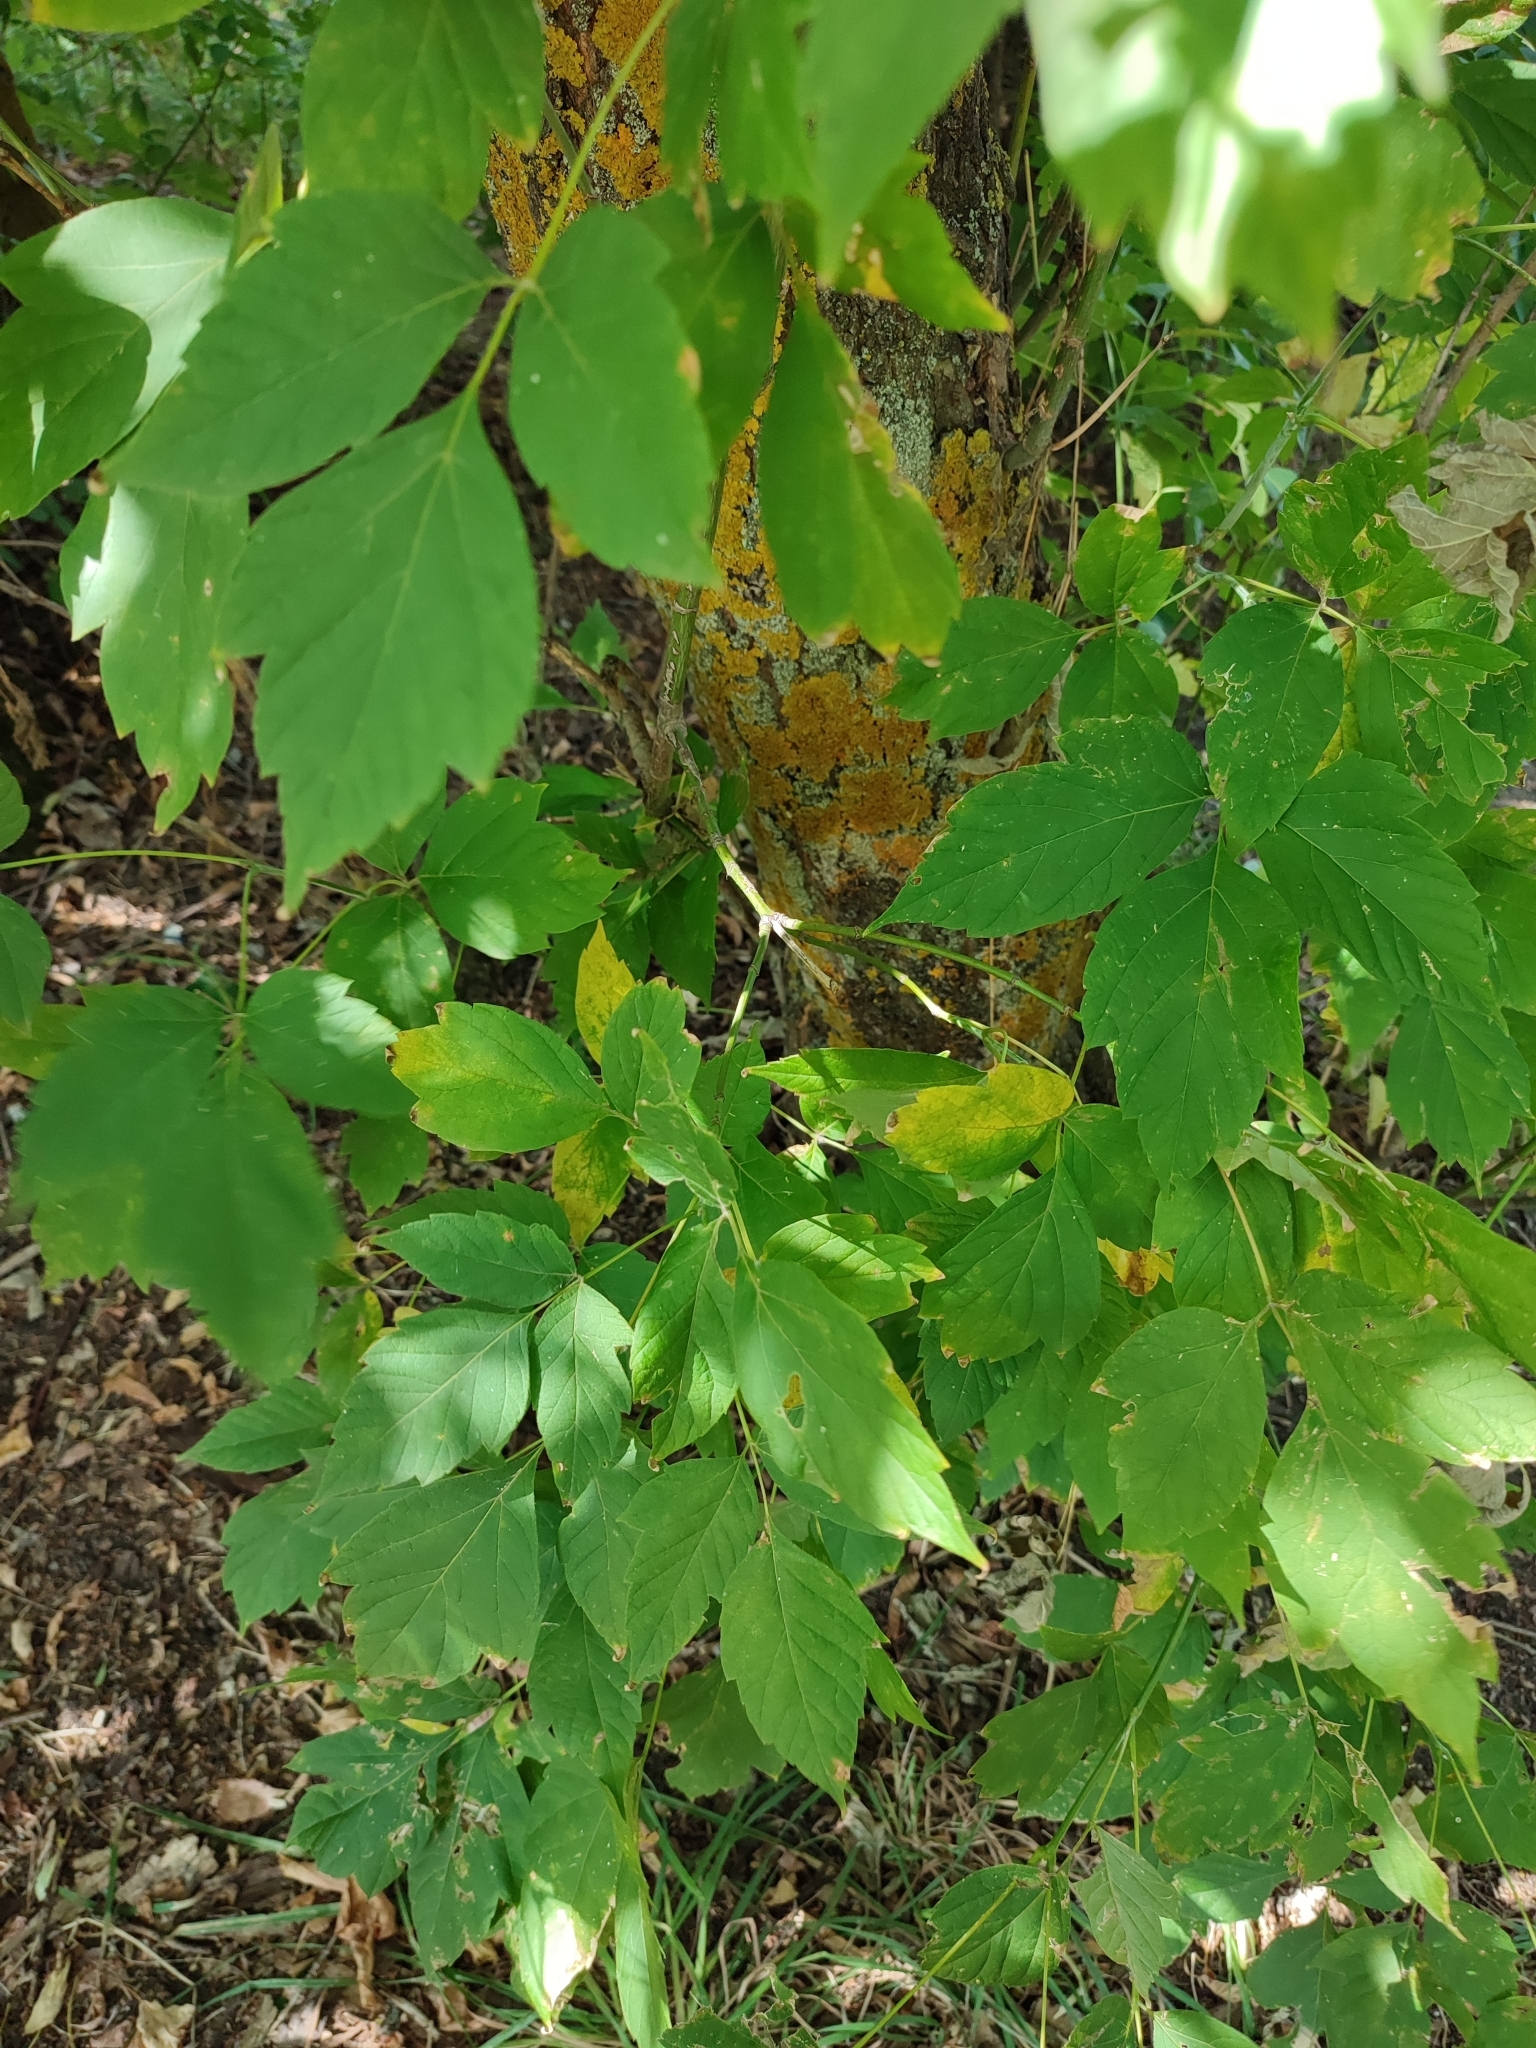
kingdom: Plantae
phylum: Tracheophyta
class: Magnoliopsida
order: Sapindales
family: Sapindaceae
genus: Acer
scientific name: Acer negundo
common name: Ashleaf maple
